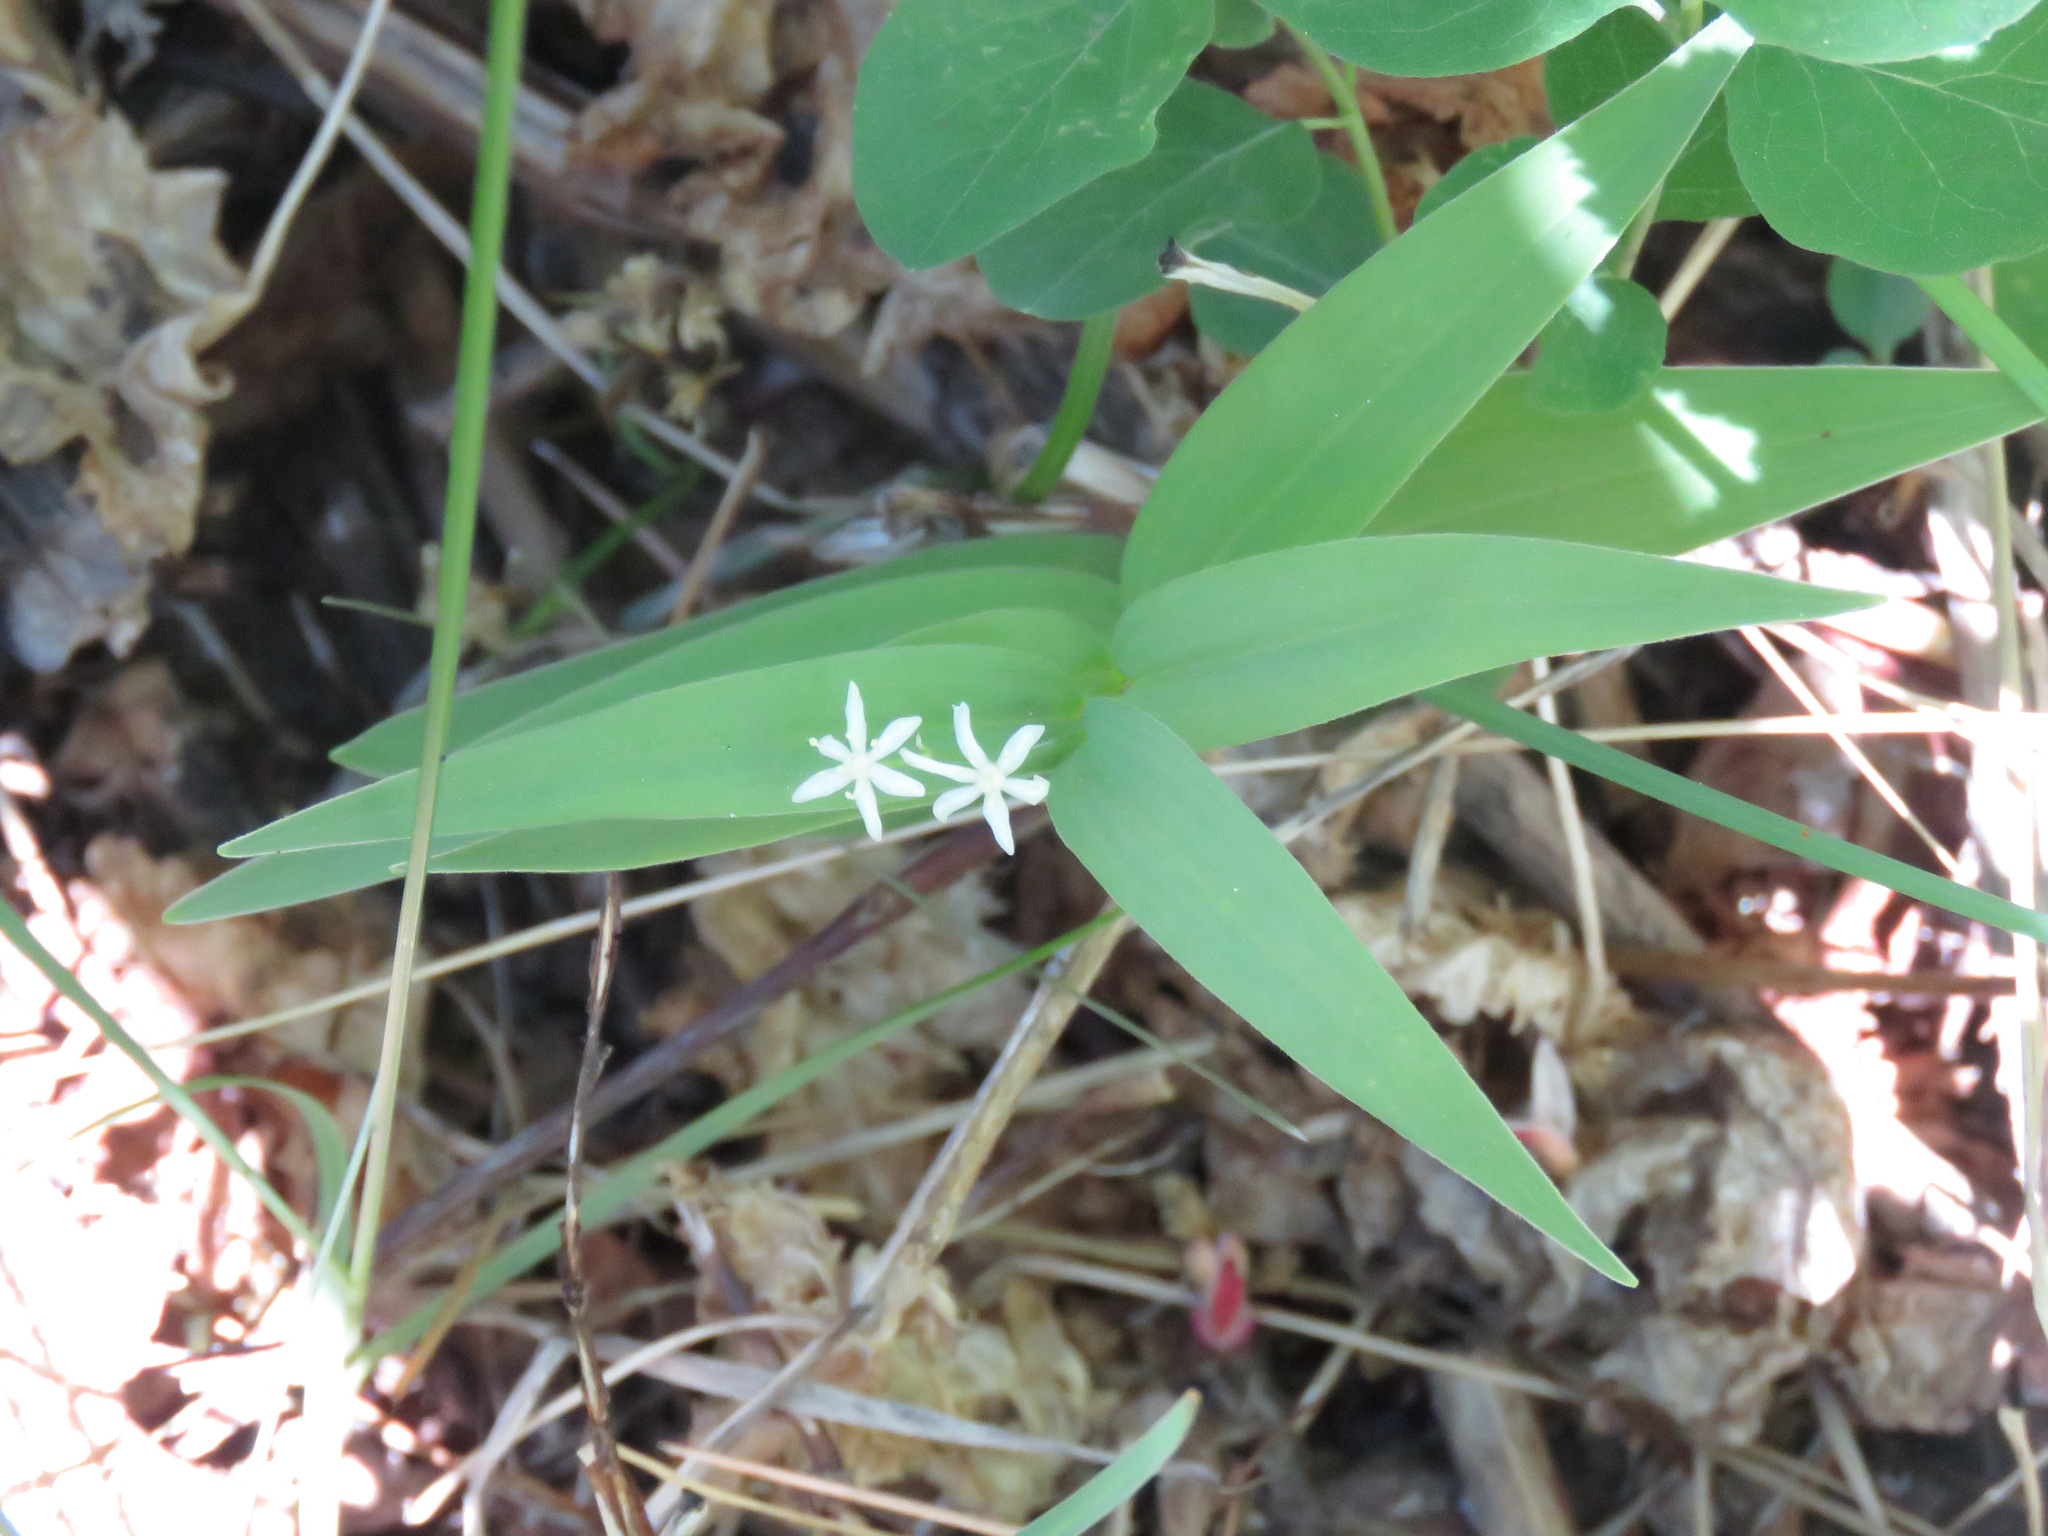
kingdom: Plantae
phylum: Tracheophyta
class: Liliopsida
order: Asparagales
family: Asparagaceae
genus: Maianthemum
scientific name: Maianthemum stellatum
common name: Little false solomon's seal
